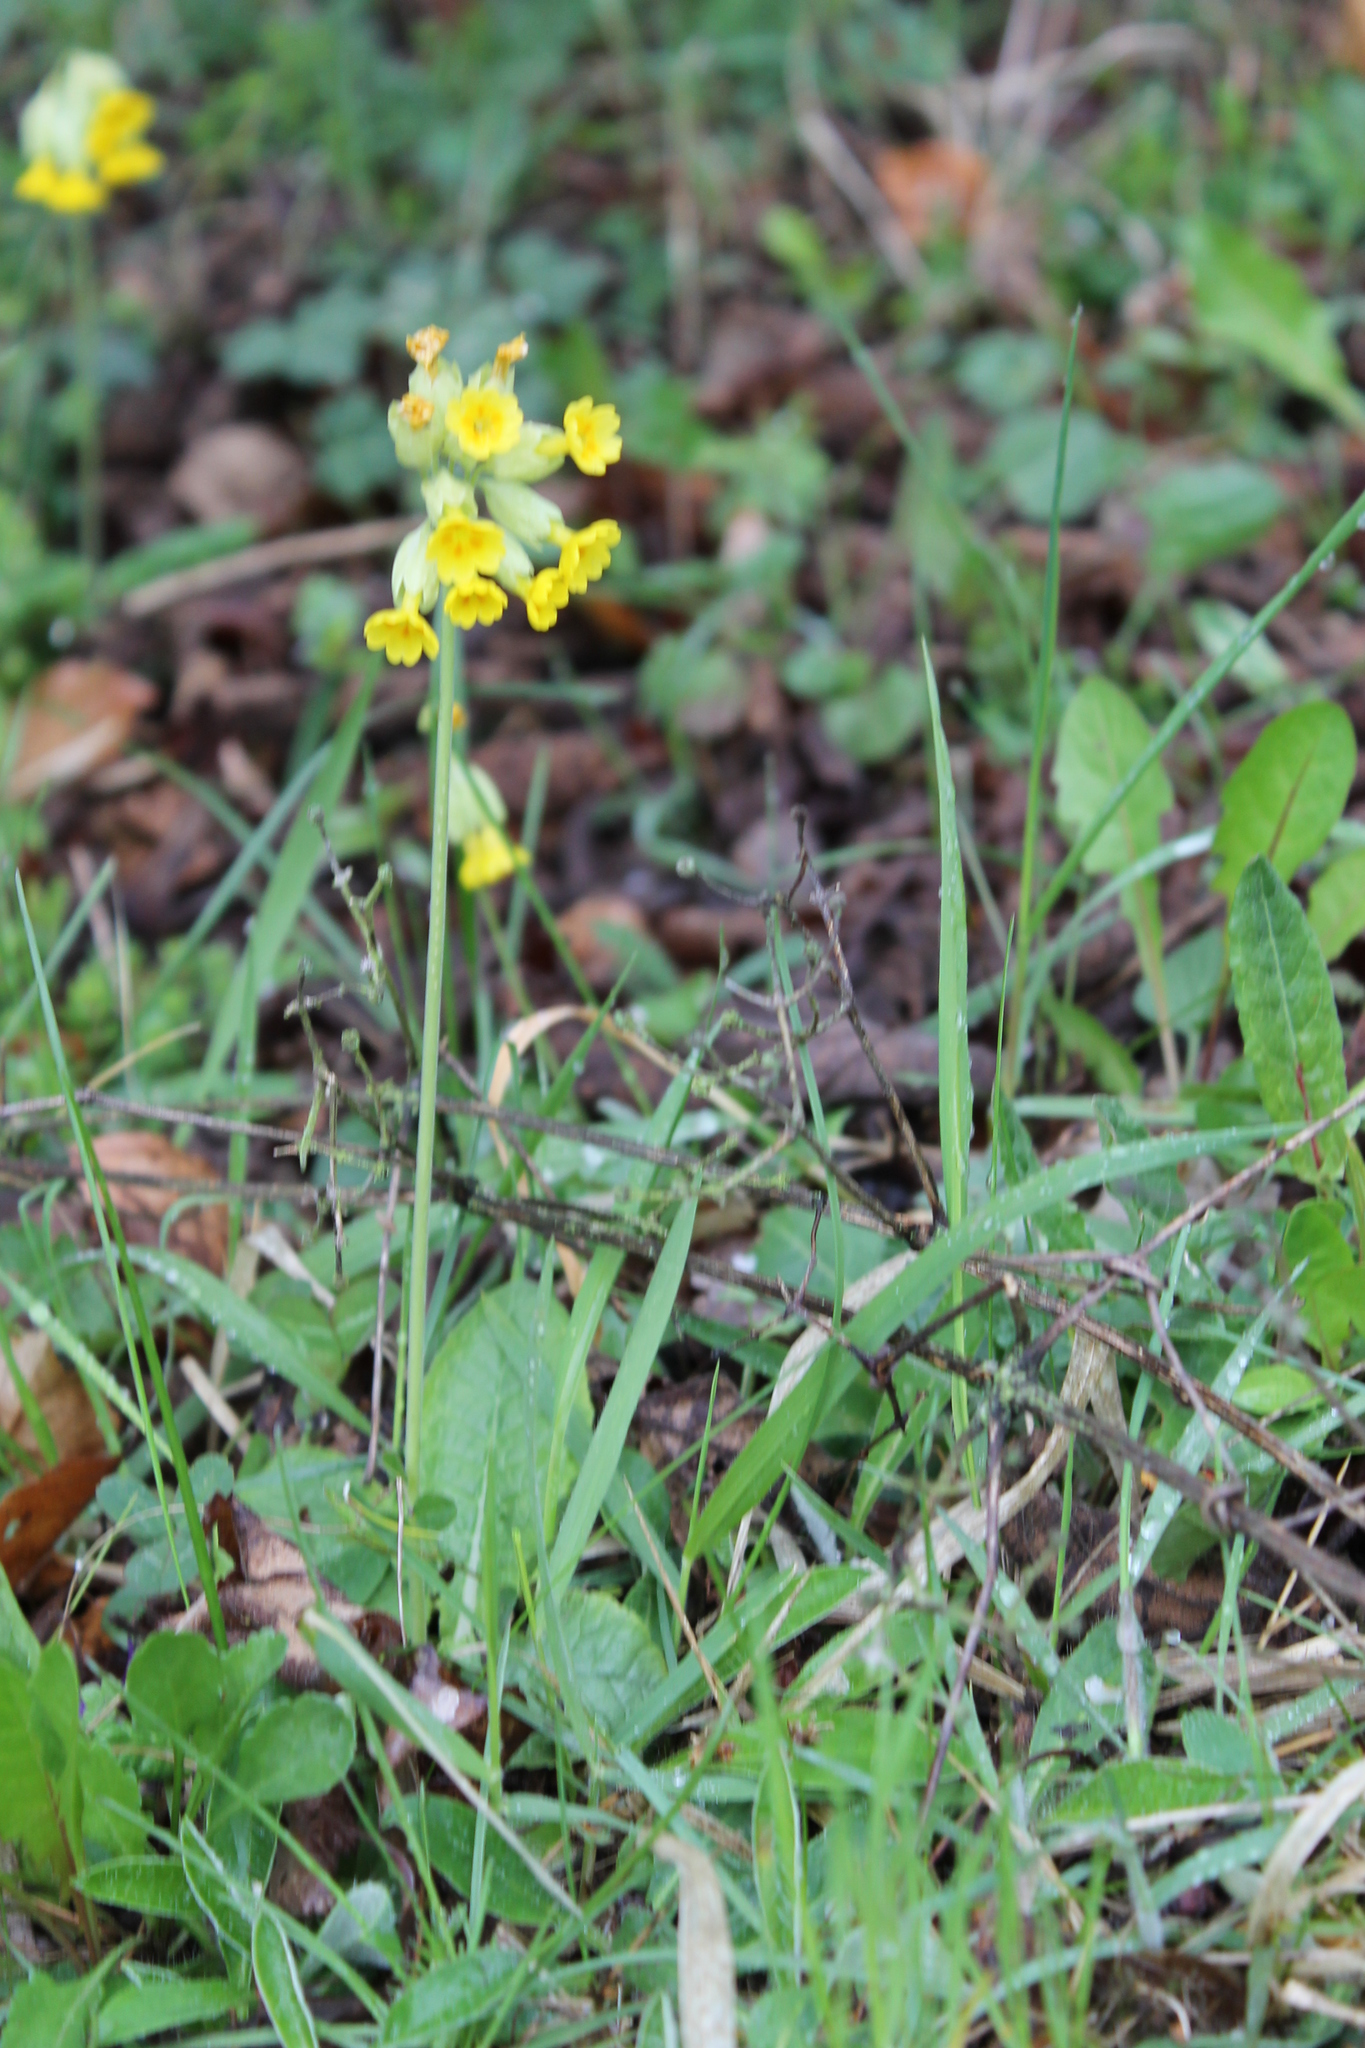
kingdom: Plantae
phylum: Tracheophyta
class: Magnoliopsida
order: Ericales
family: Primulaceae
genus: Primula
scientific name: Primula veris
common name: Cowslip
